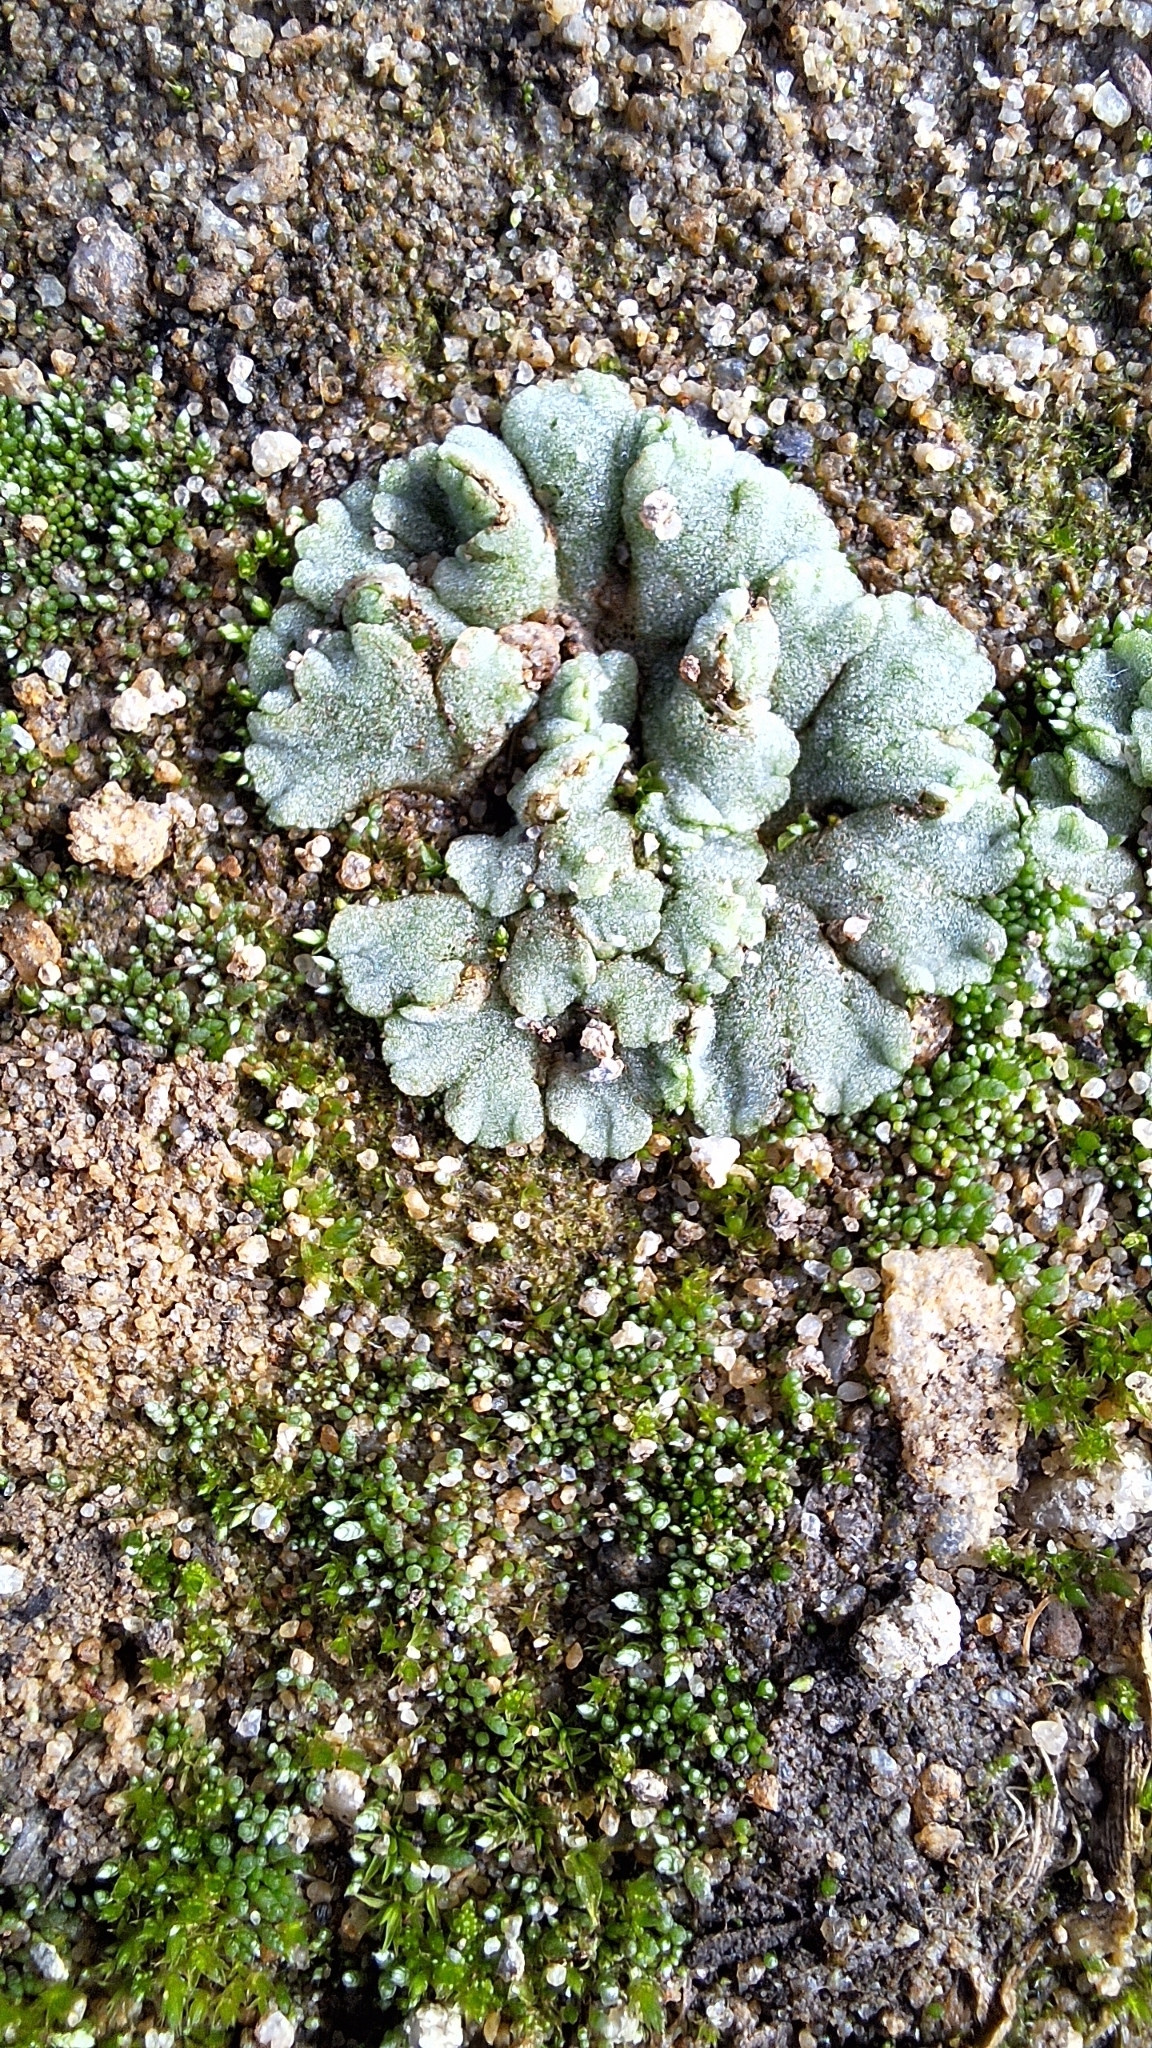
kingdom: Plantae
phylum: Marchantiophyta
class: Marchantiopsida
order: Marchantiales
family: Ricciaceae
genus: Riccia
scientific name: Riccia crystallina
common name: Blue crystalwort
